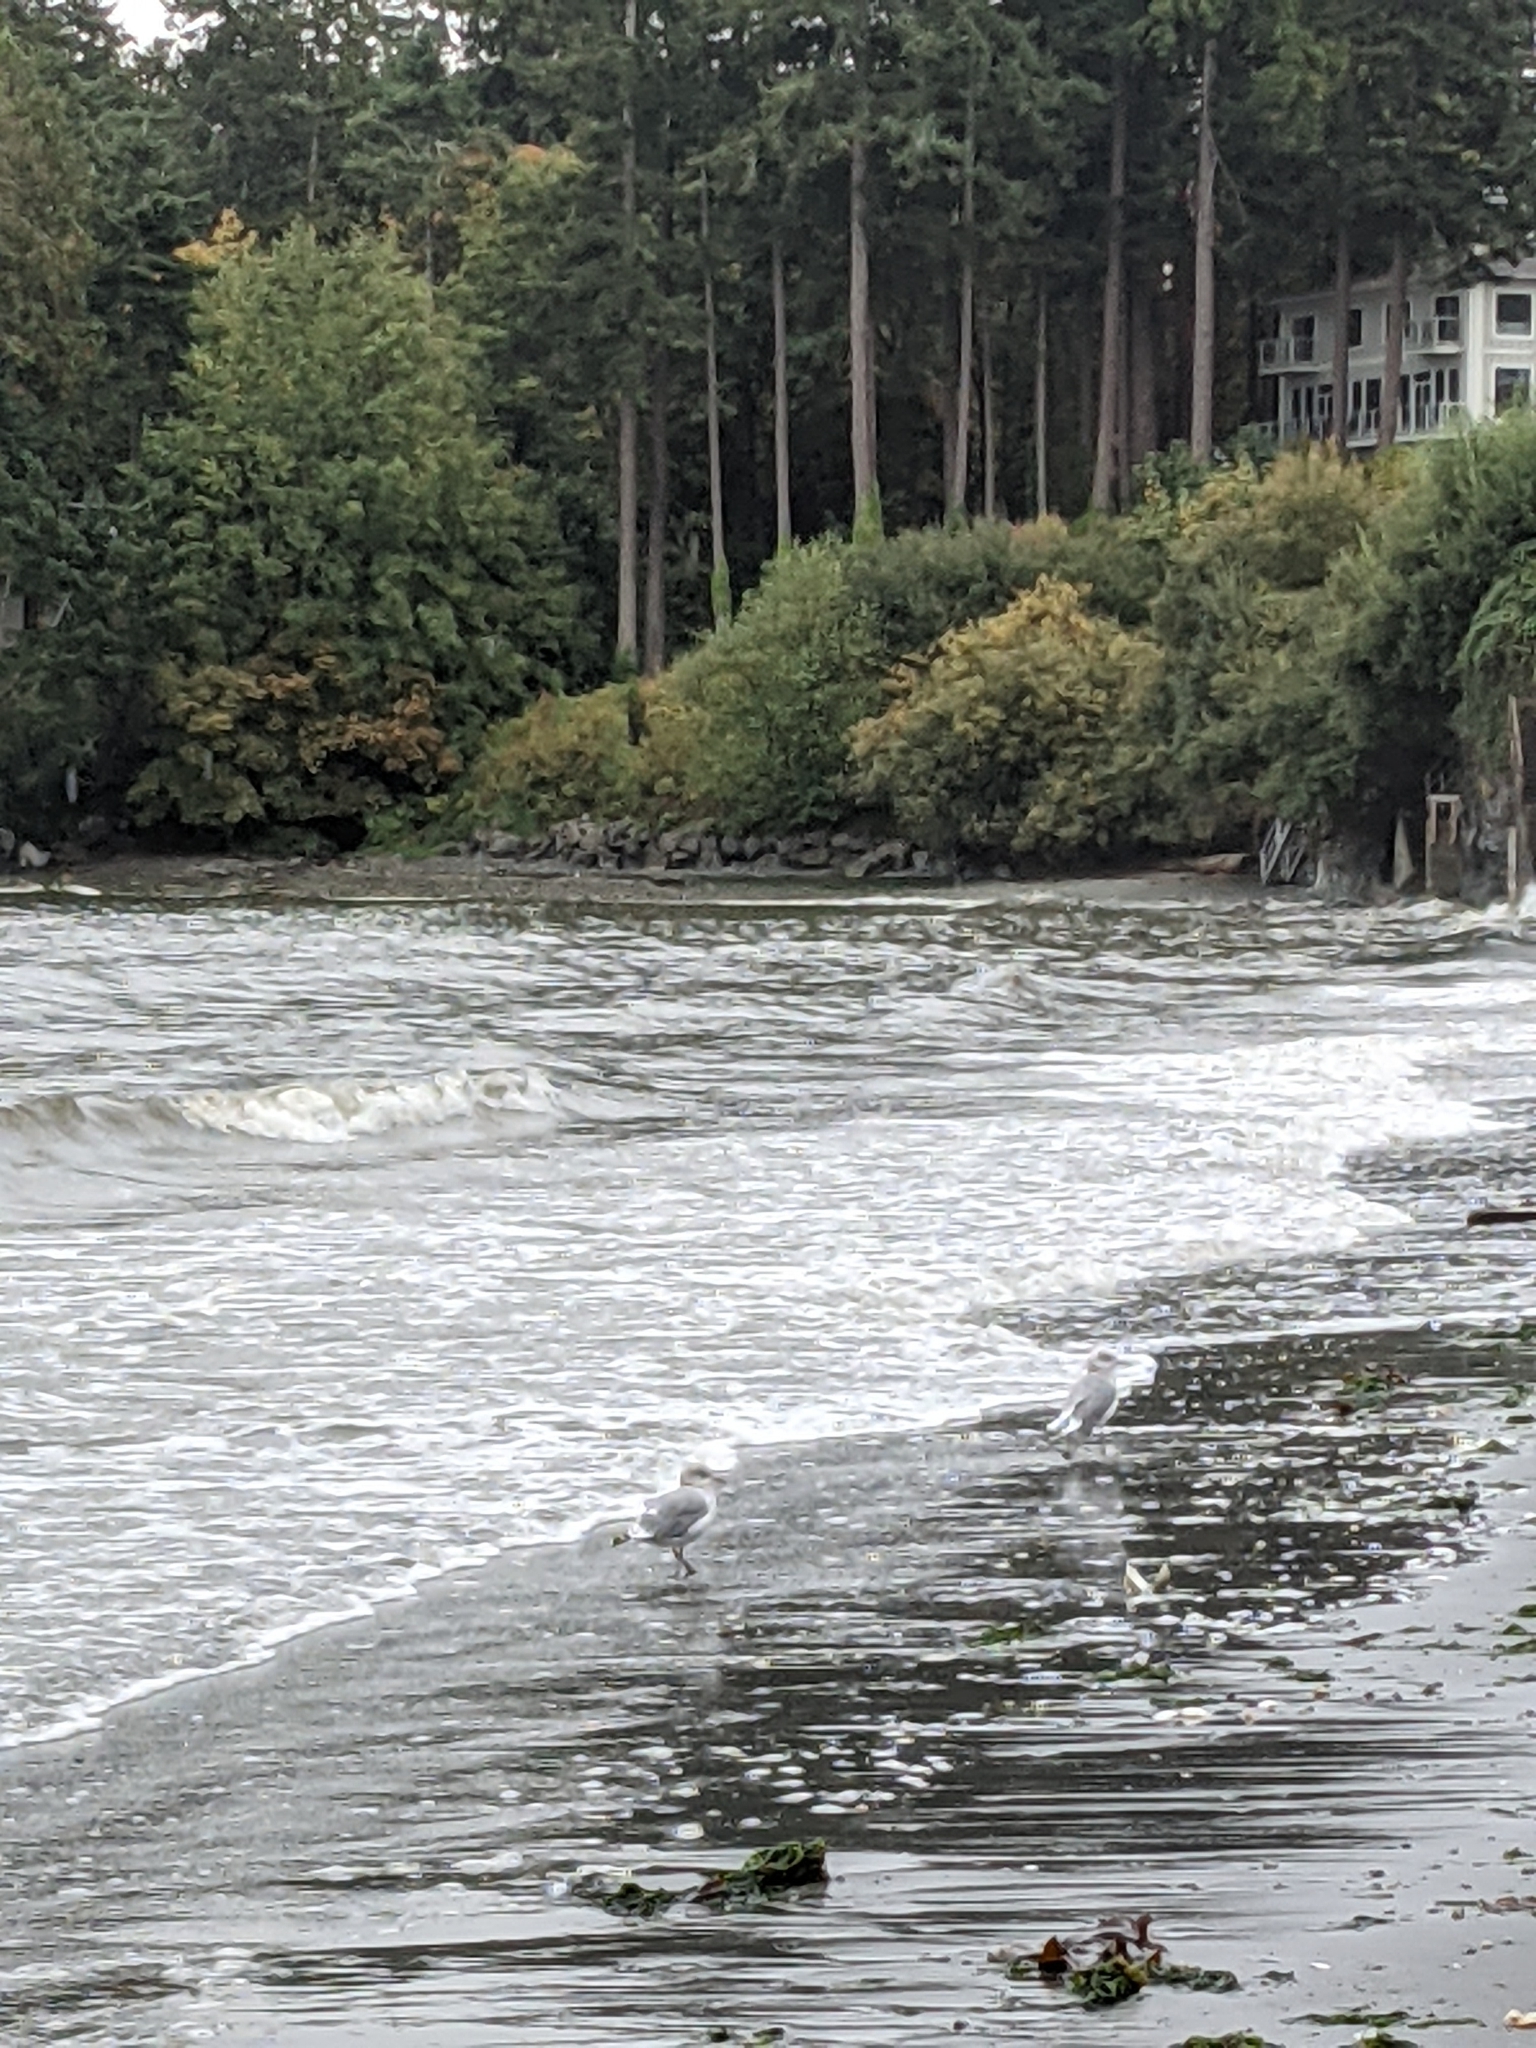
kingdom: Animalia
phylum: Chordata
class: Aves
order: Charadriiformes
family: Laridae
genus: Larus
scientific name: Larus brachyrhynchus
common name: Short-billed gull
